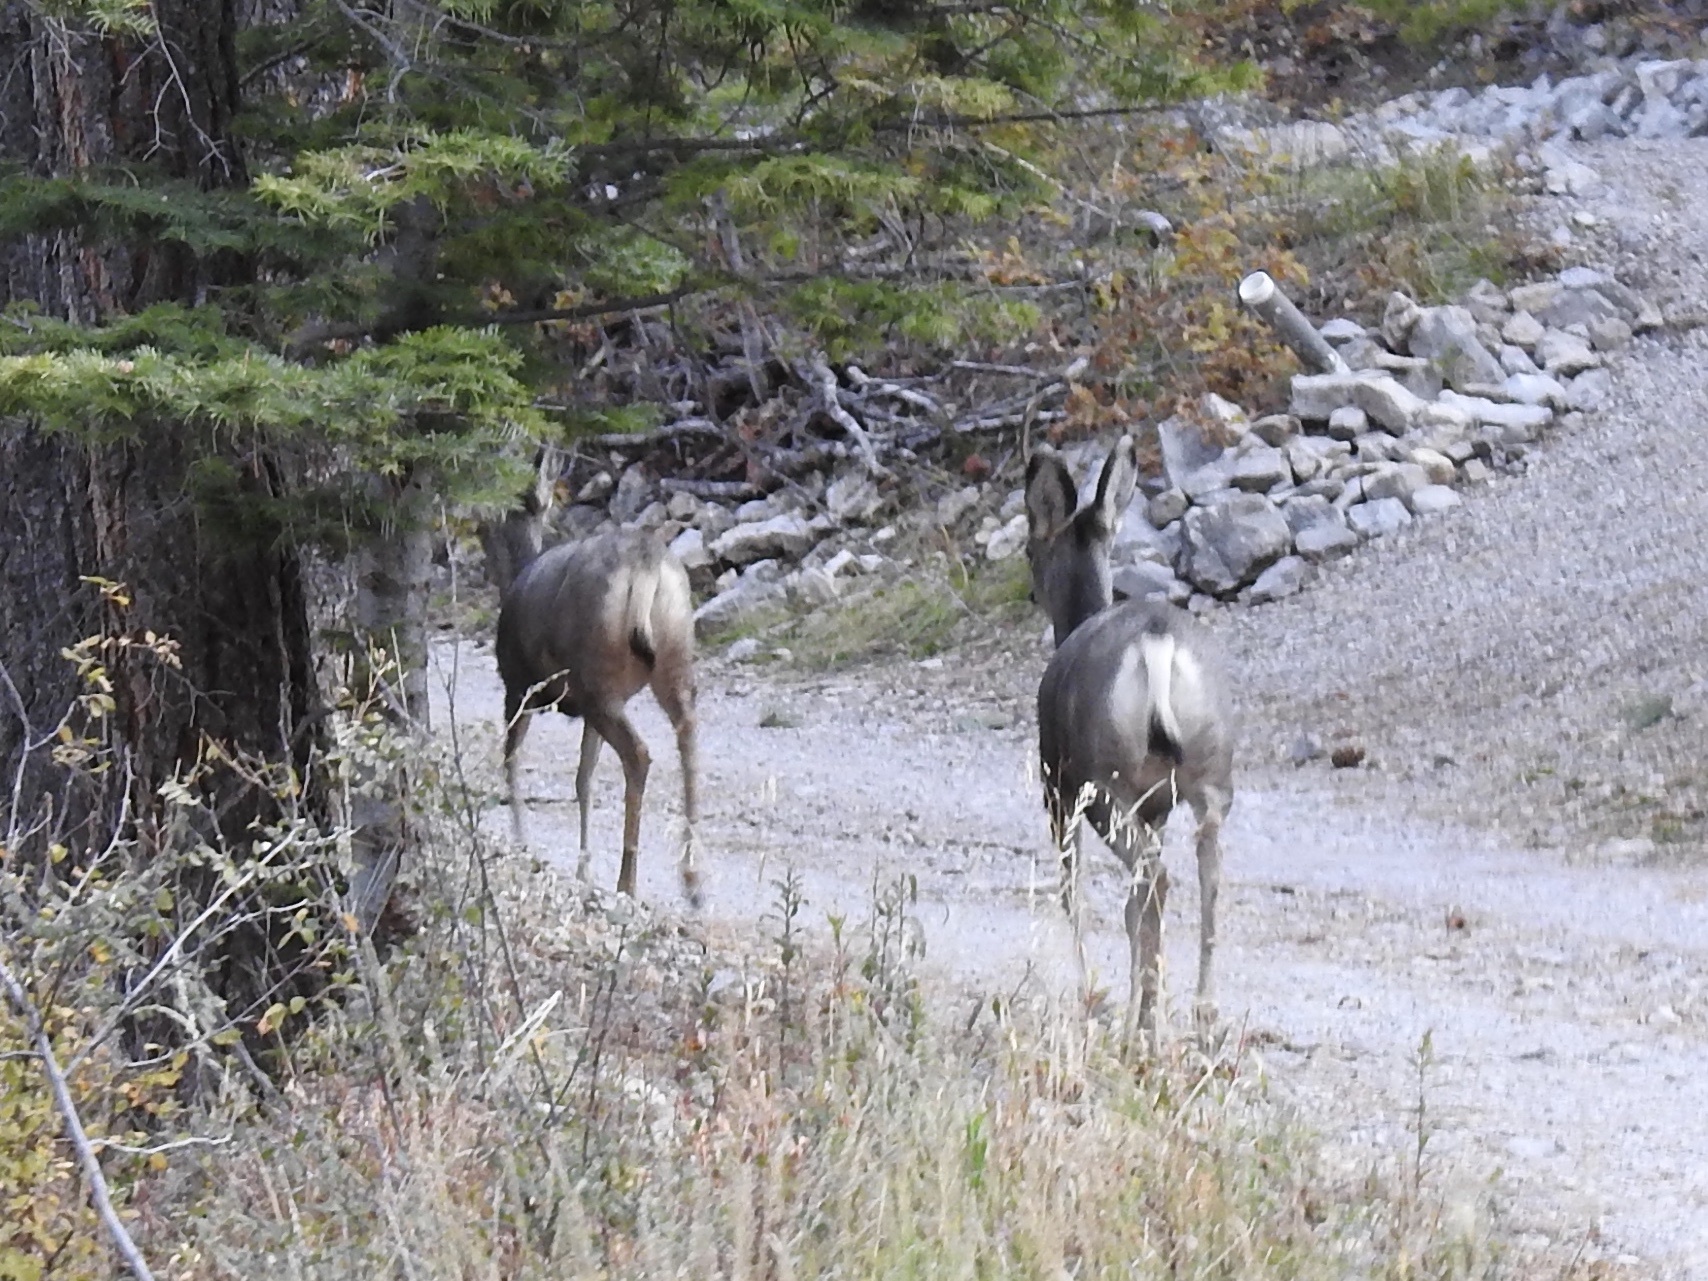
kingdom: Animalia
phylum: Chordata
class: Mammalia
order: Artiodactyla
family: Cervidae
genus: Odocoileus
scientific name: Odocoileus hemionus
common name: Mule deer
